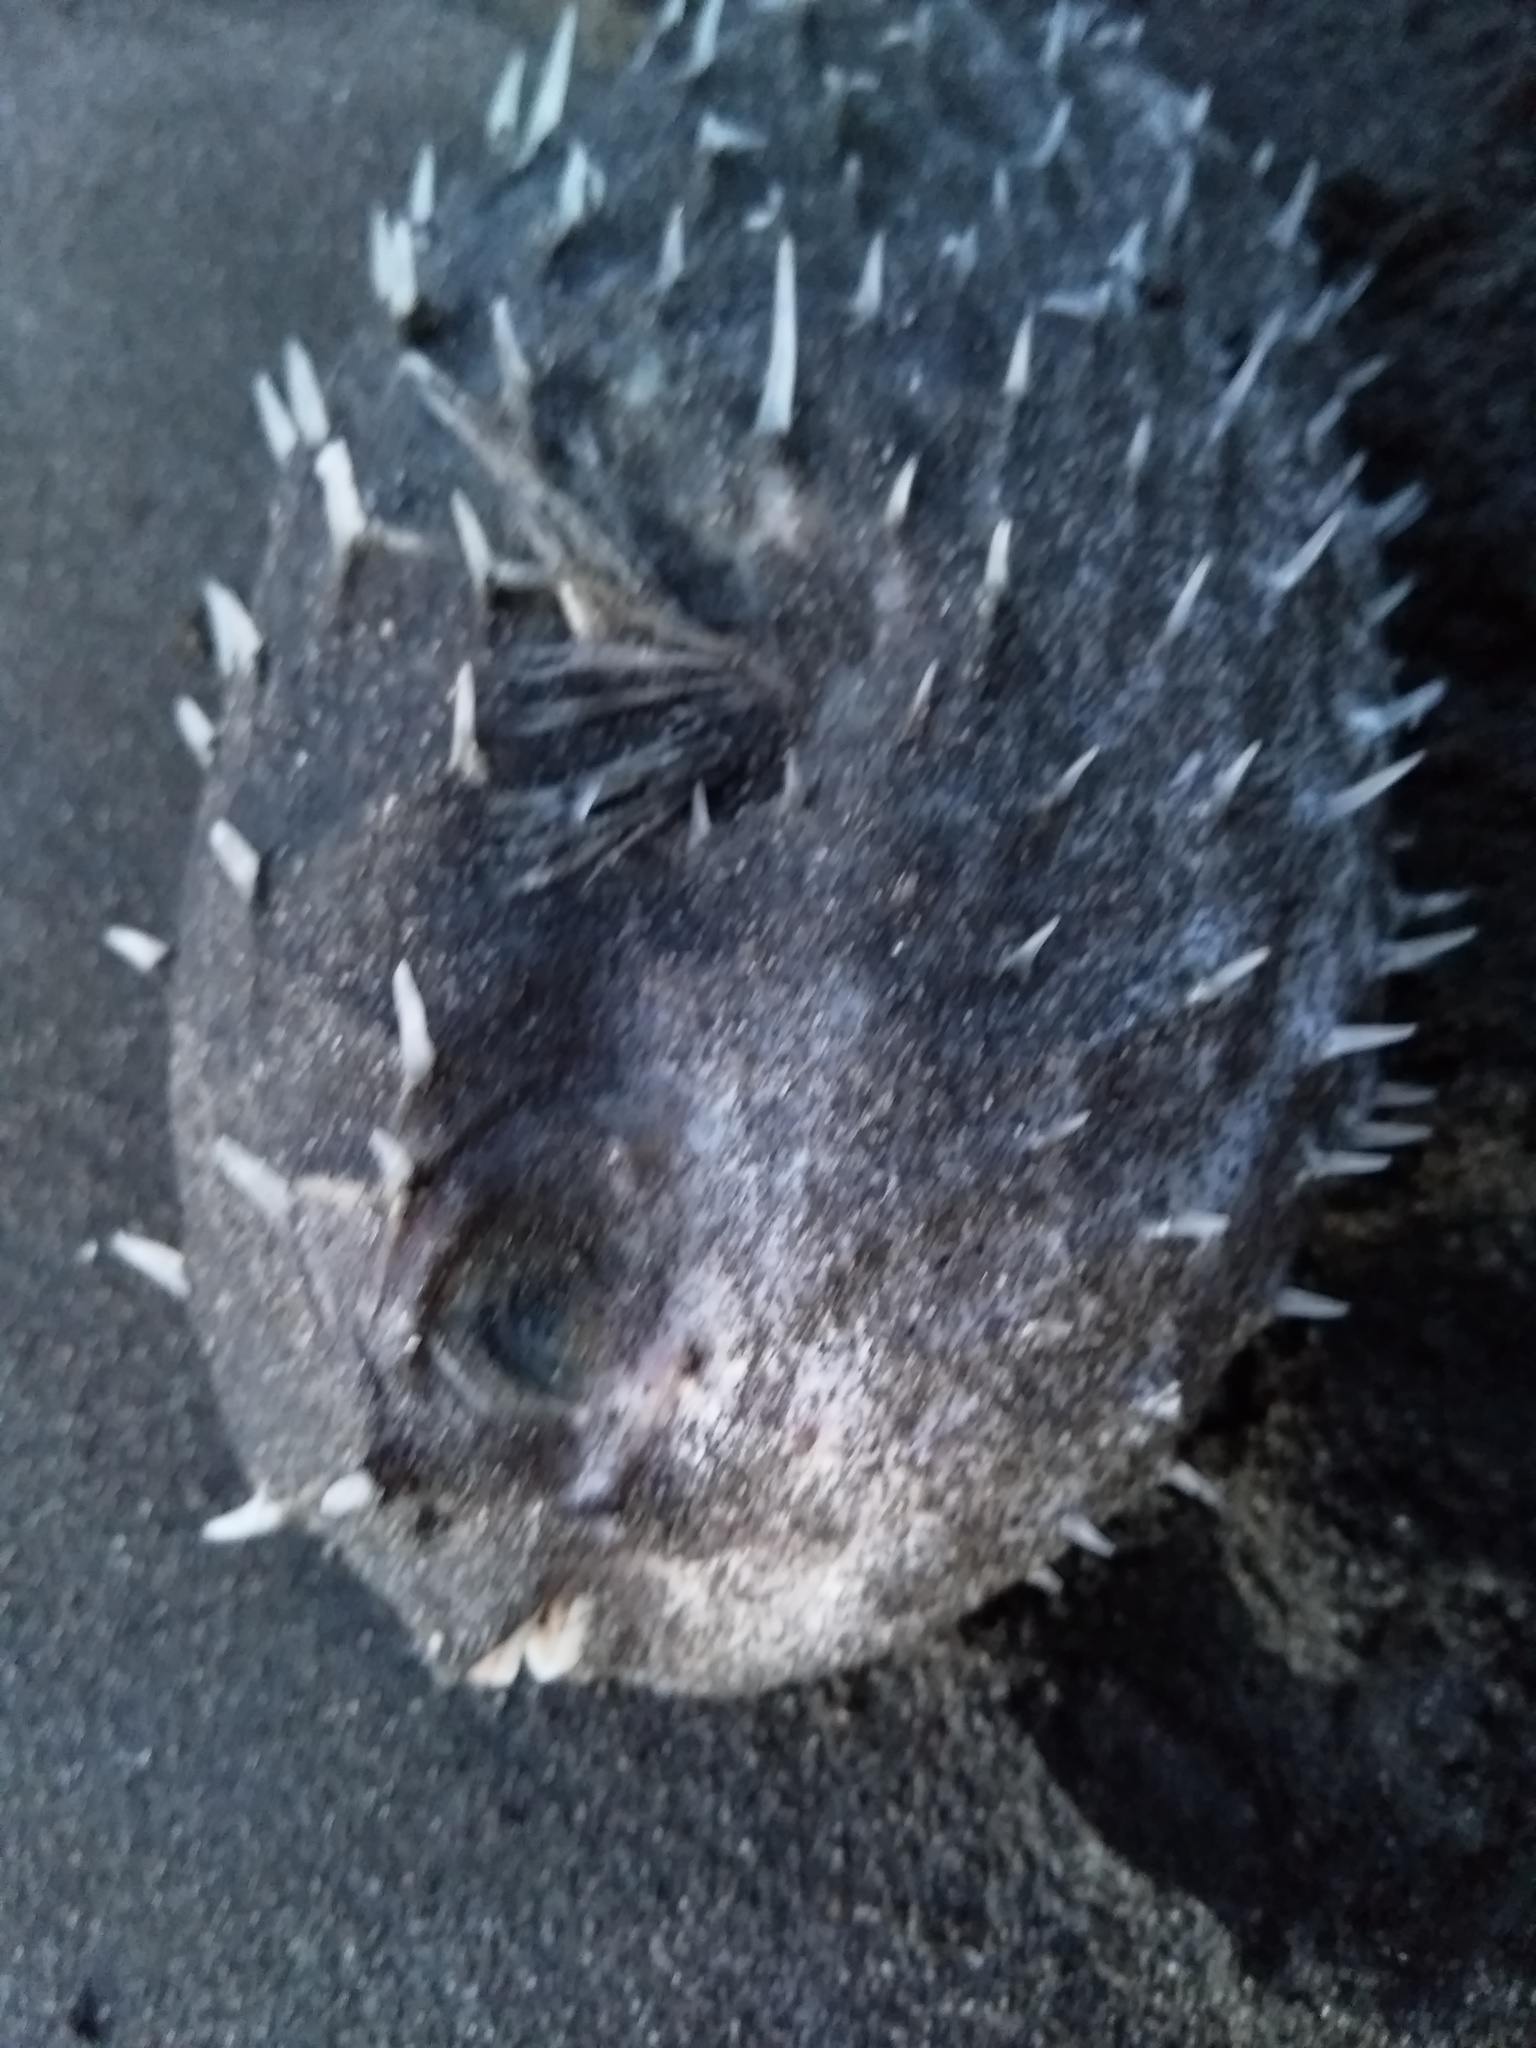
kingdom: Animalia
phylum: Chordata
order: Tetraodontiformes
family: Diodontidae
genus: Allomycterus
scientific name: Allomycterus pilatus
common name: No common name
